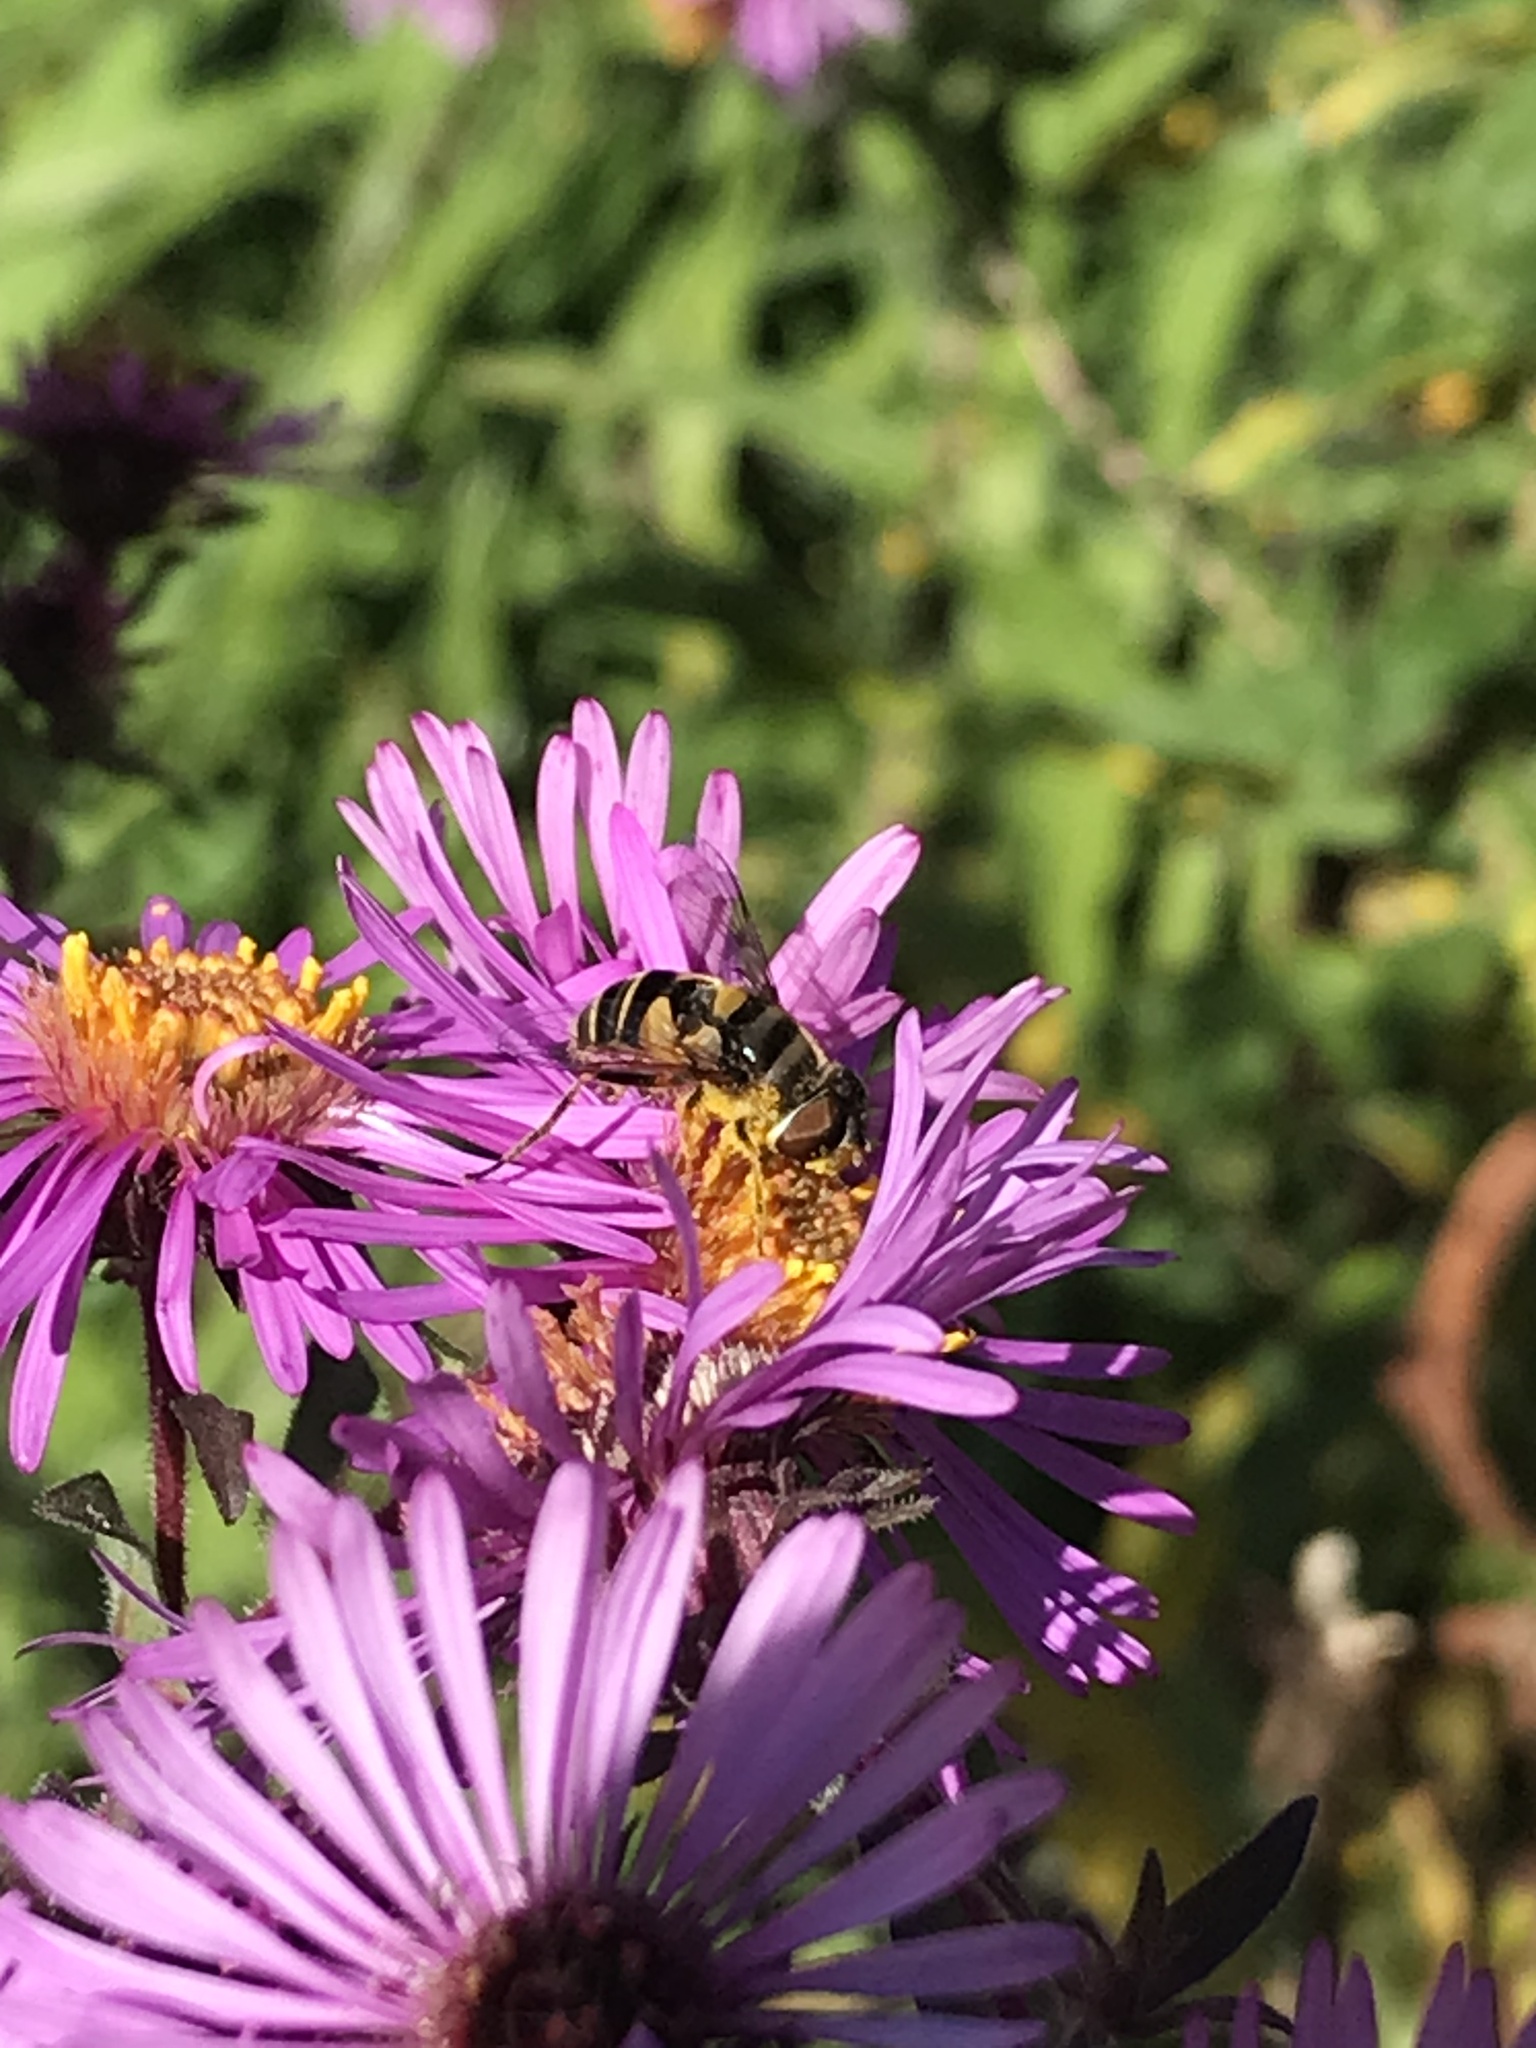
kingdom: Animalia
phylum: Arthropoda
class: Insecta
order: Diptera
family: Syrphidae
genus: Eristalis
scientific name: Eristalis transversa
